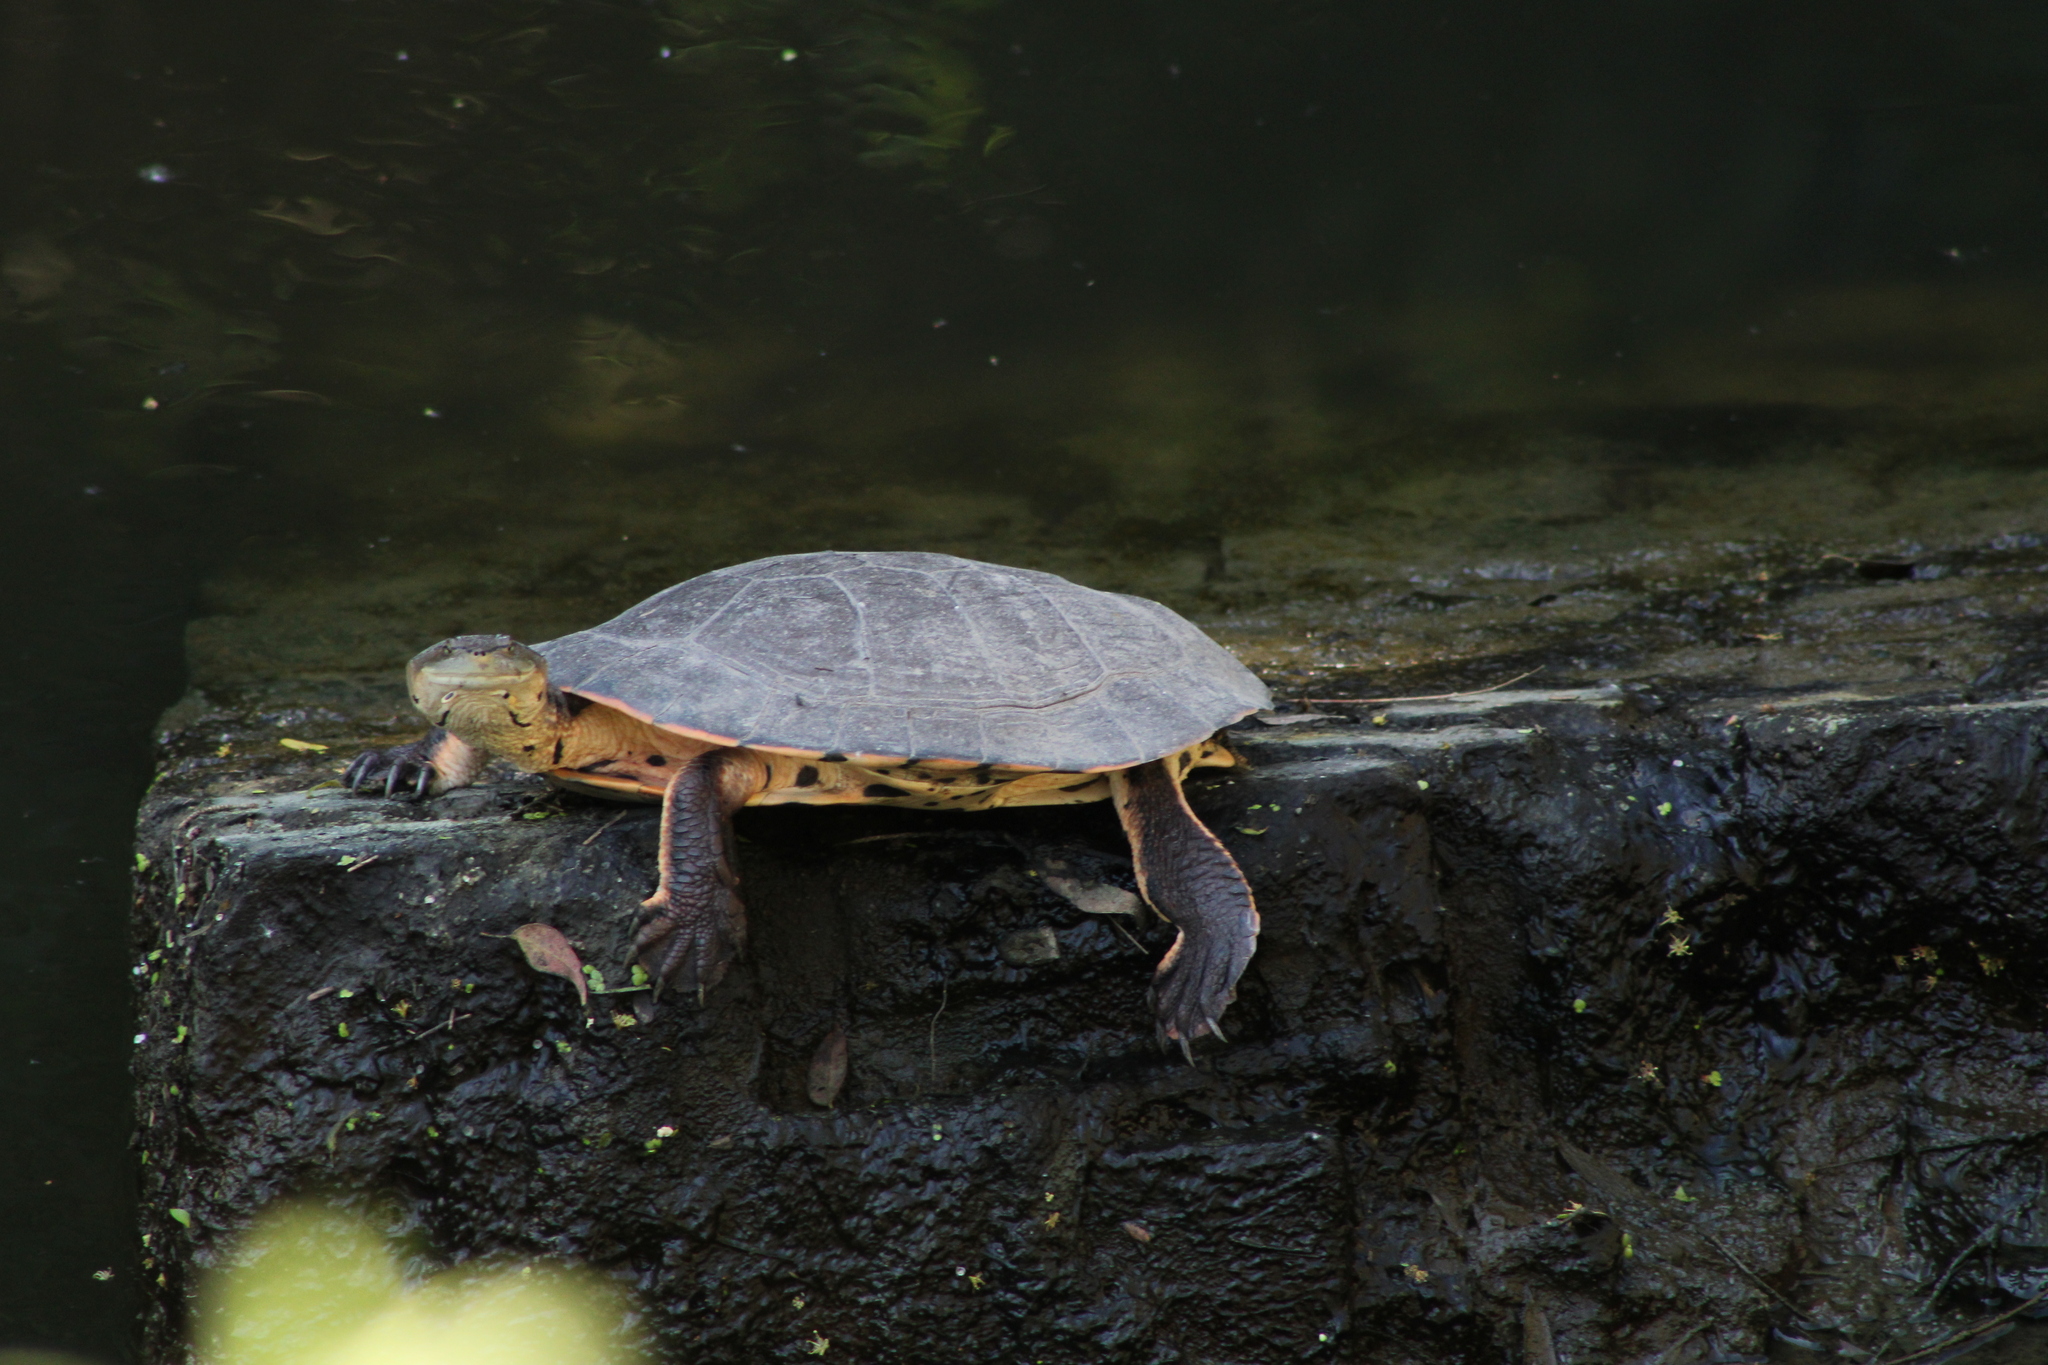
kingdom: Animalia
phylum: Chordata
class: Testudines
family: Chelidae
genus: Phrynops
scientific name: Phrynops hilarii
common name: Side-necked turtle of saint hillaire
